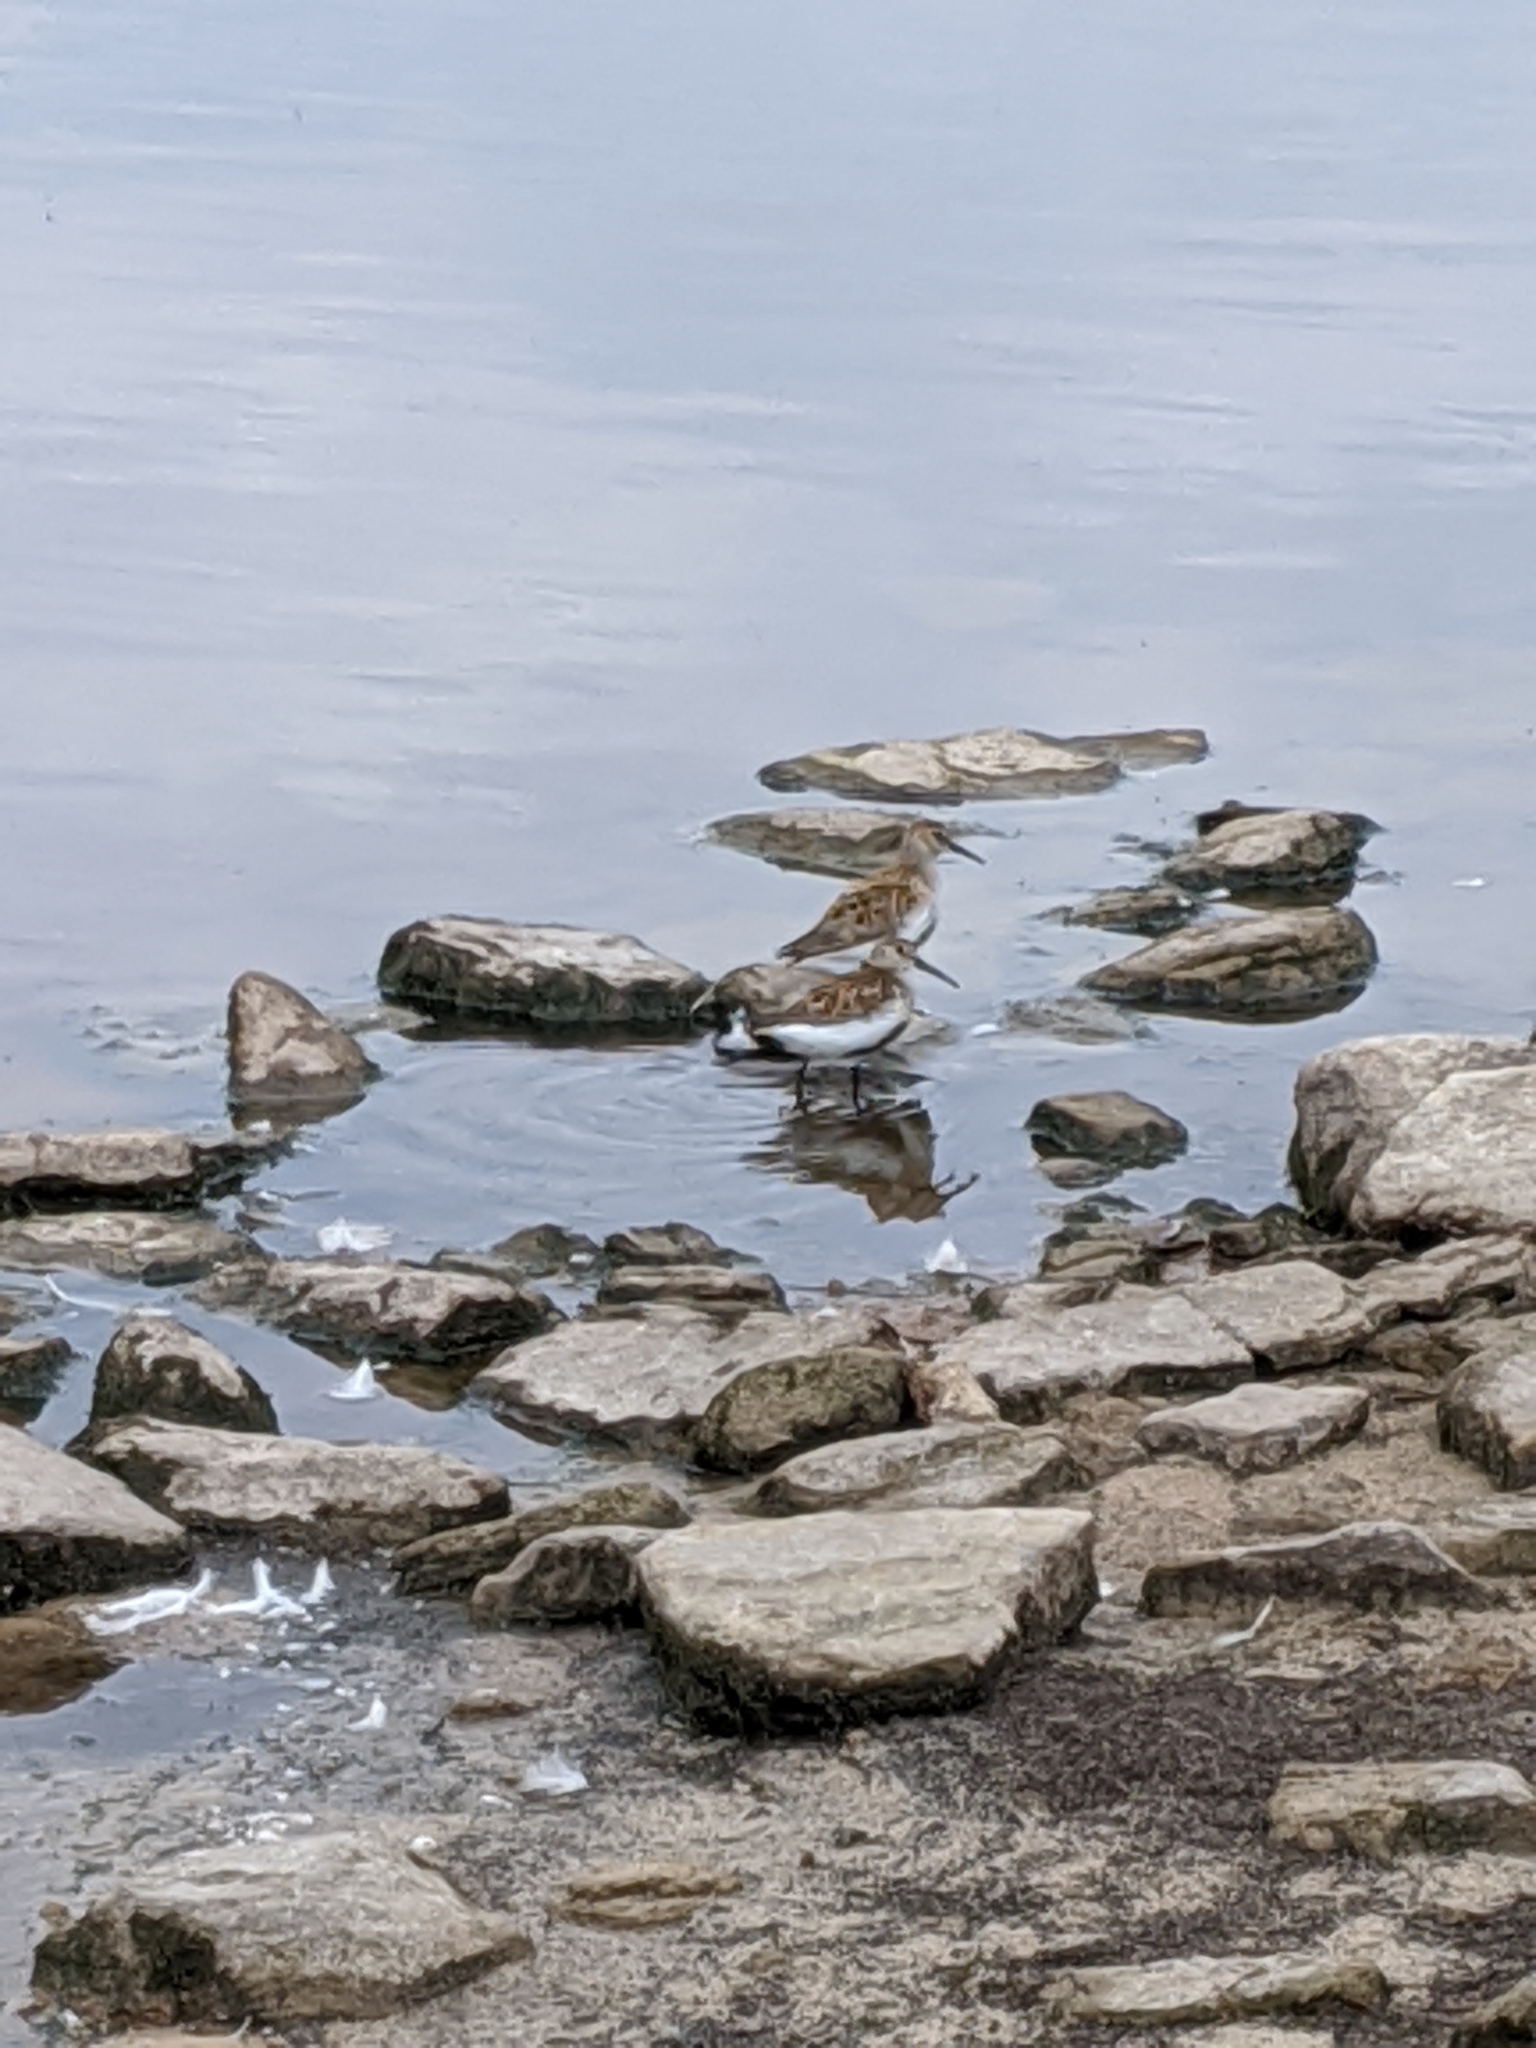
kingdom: Animalia
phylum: Chordata
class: Aves
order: Charadriiformes
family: Scolopacidae
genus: Calidris
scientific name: Calidris alpina
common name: Dunlin
